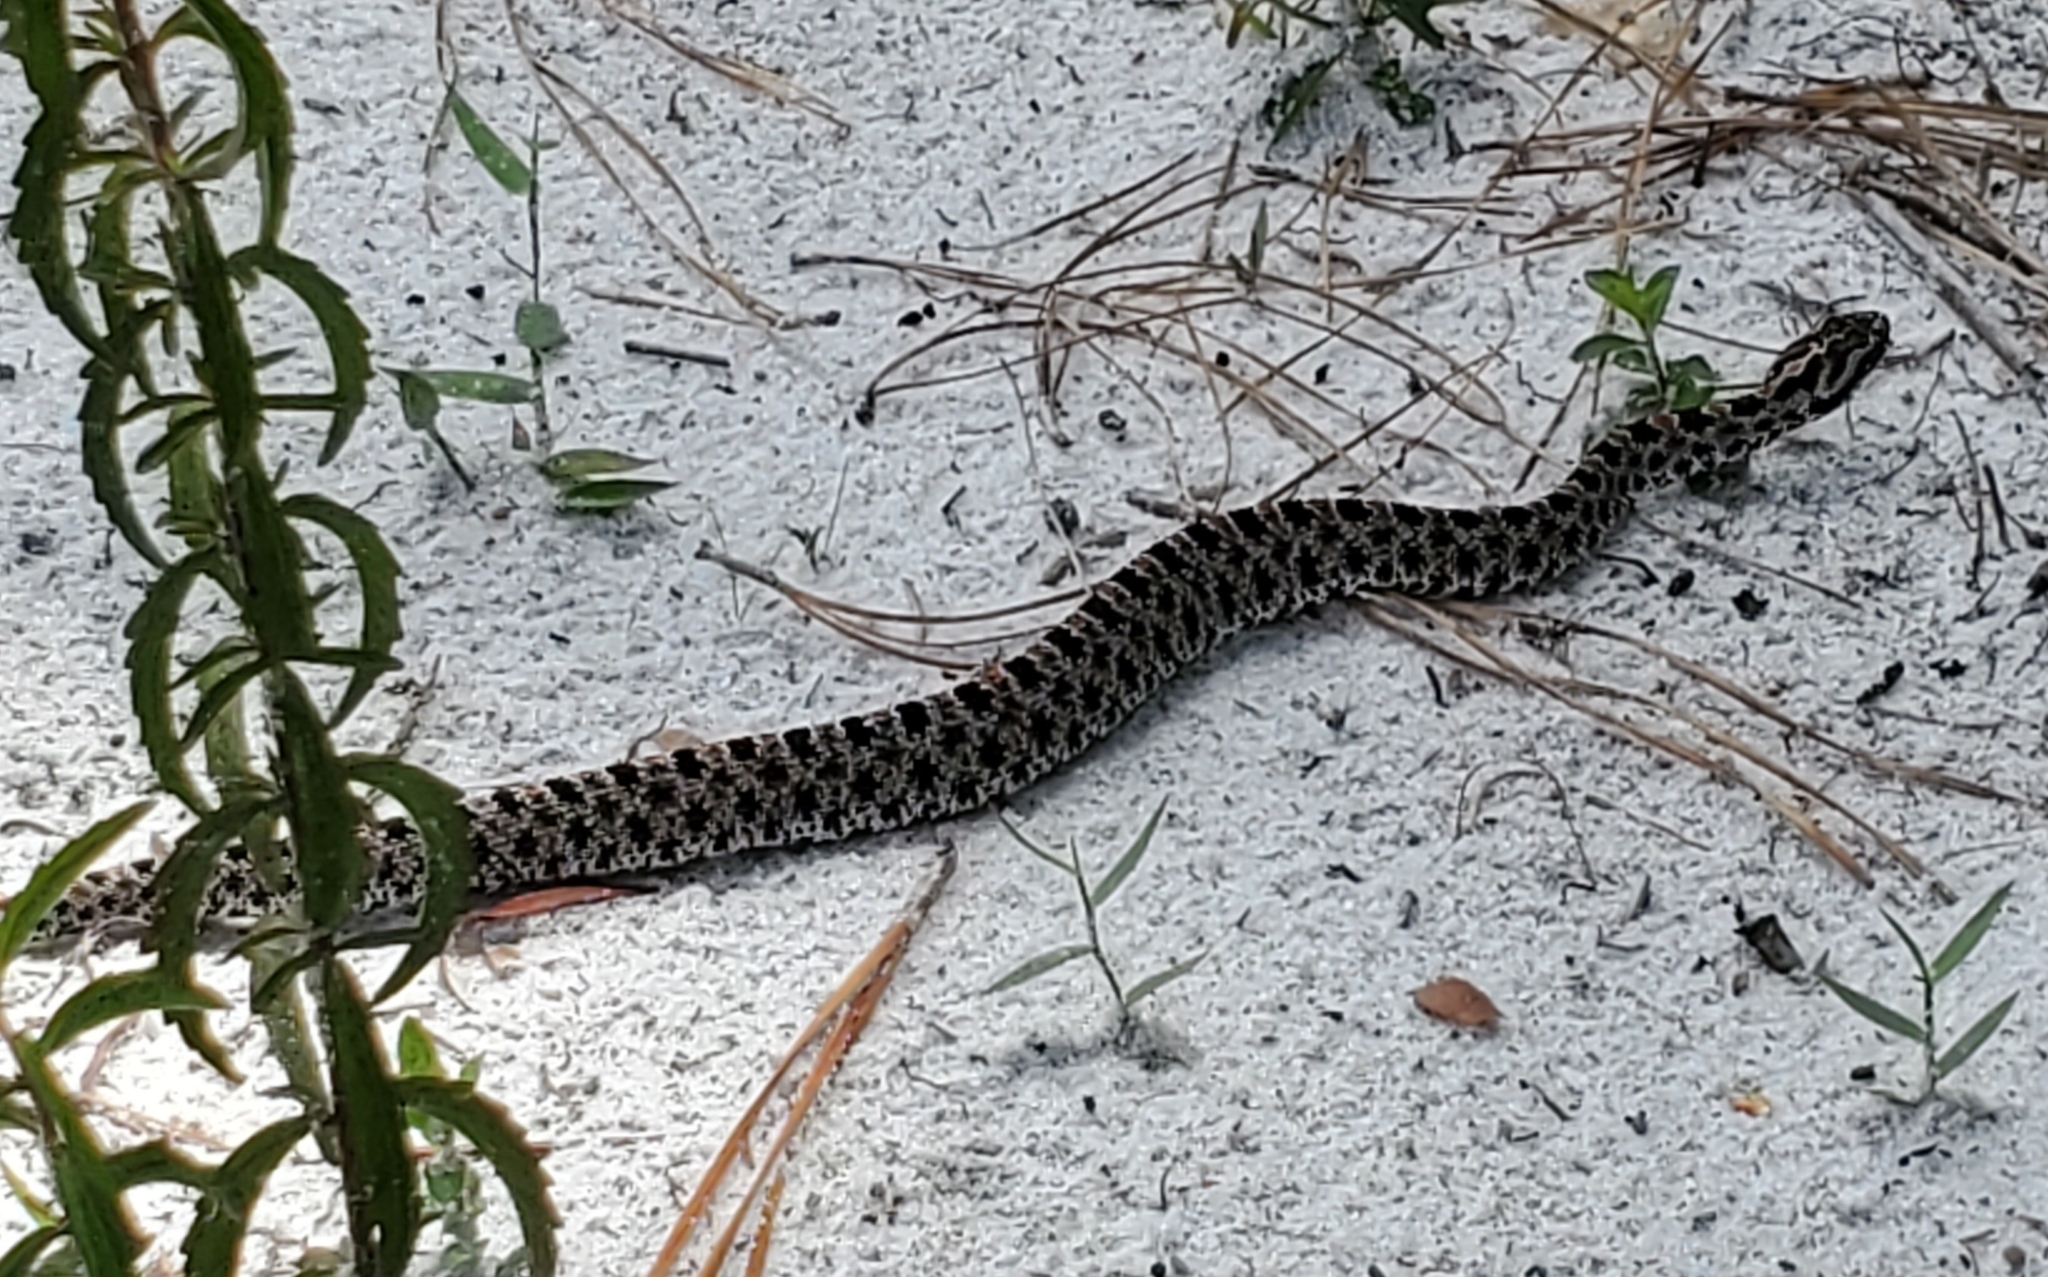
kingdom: Animalia
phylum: Chordata
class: Squamata
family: Viperidae
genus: Sistrurus
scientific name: Sistrurus miliarius
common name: Pygmy rattlesnake
